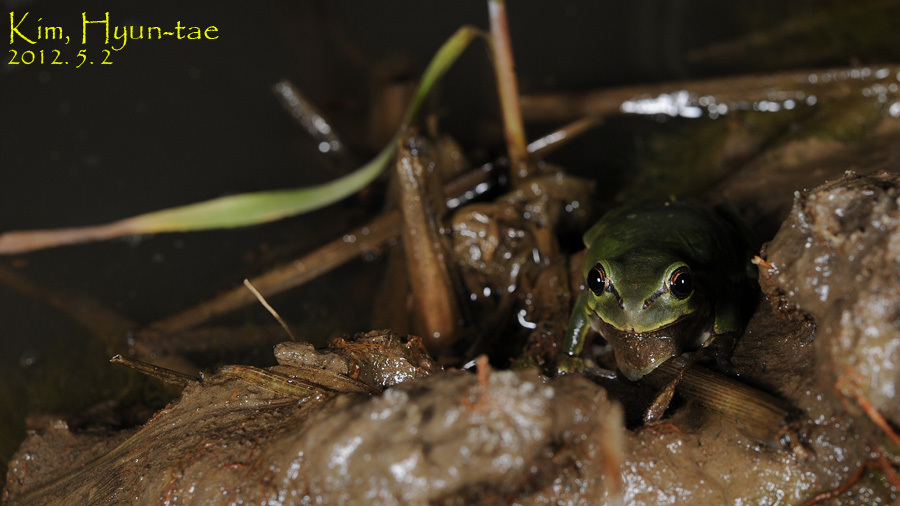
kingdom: Animalia
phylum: Chordata
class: Amphibia
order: Anura
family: Hylidae
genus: Dryophytes
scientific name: Dryophytes japonicus
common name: Japanese treefrog
